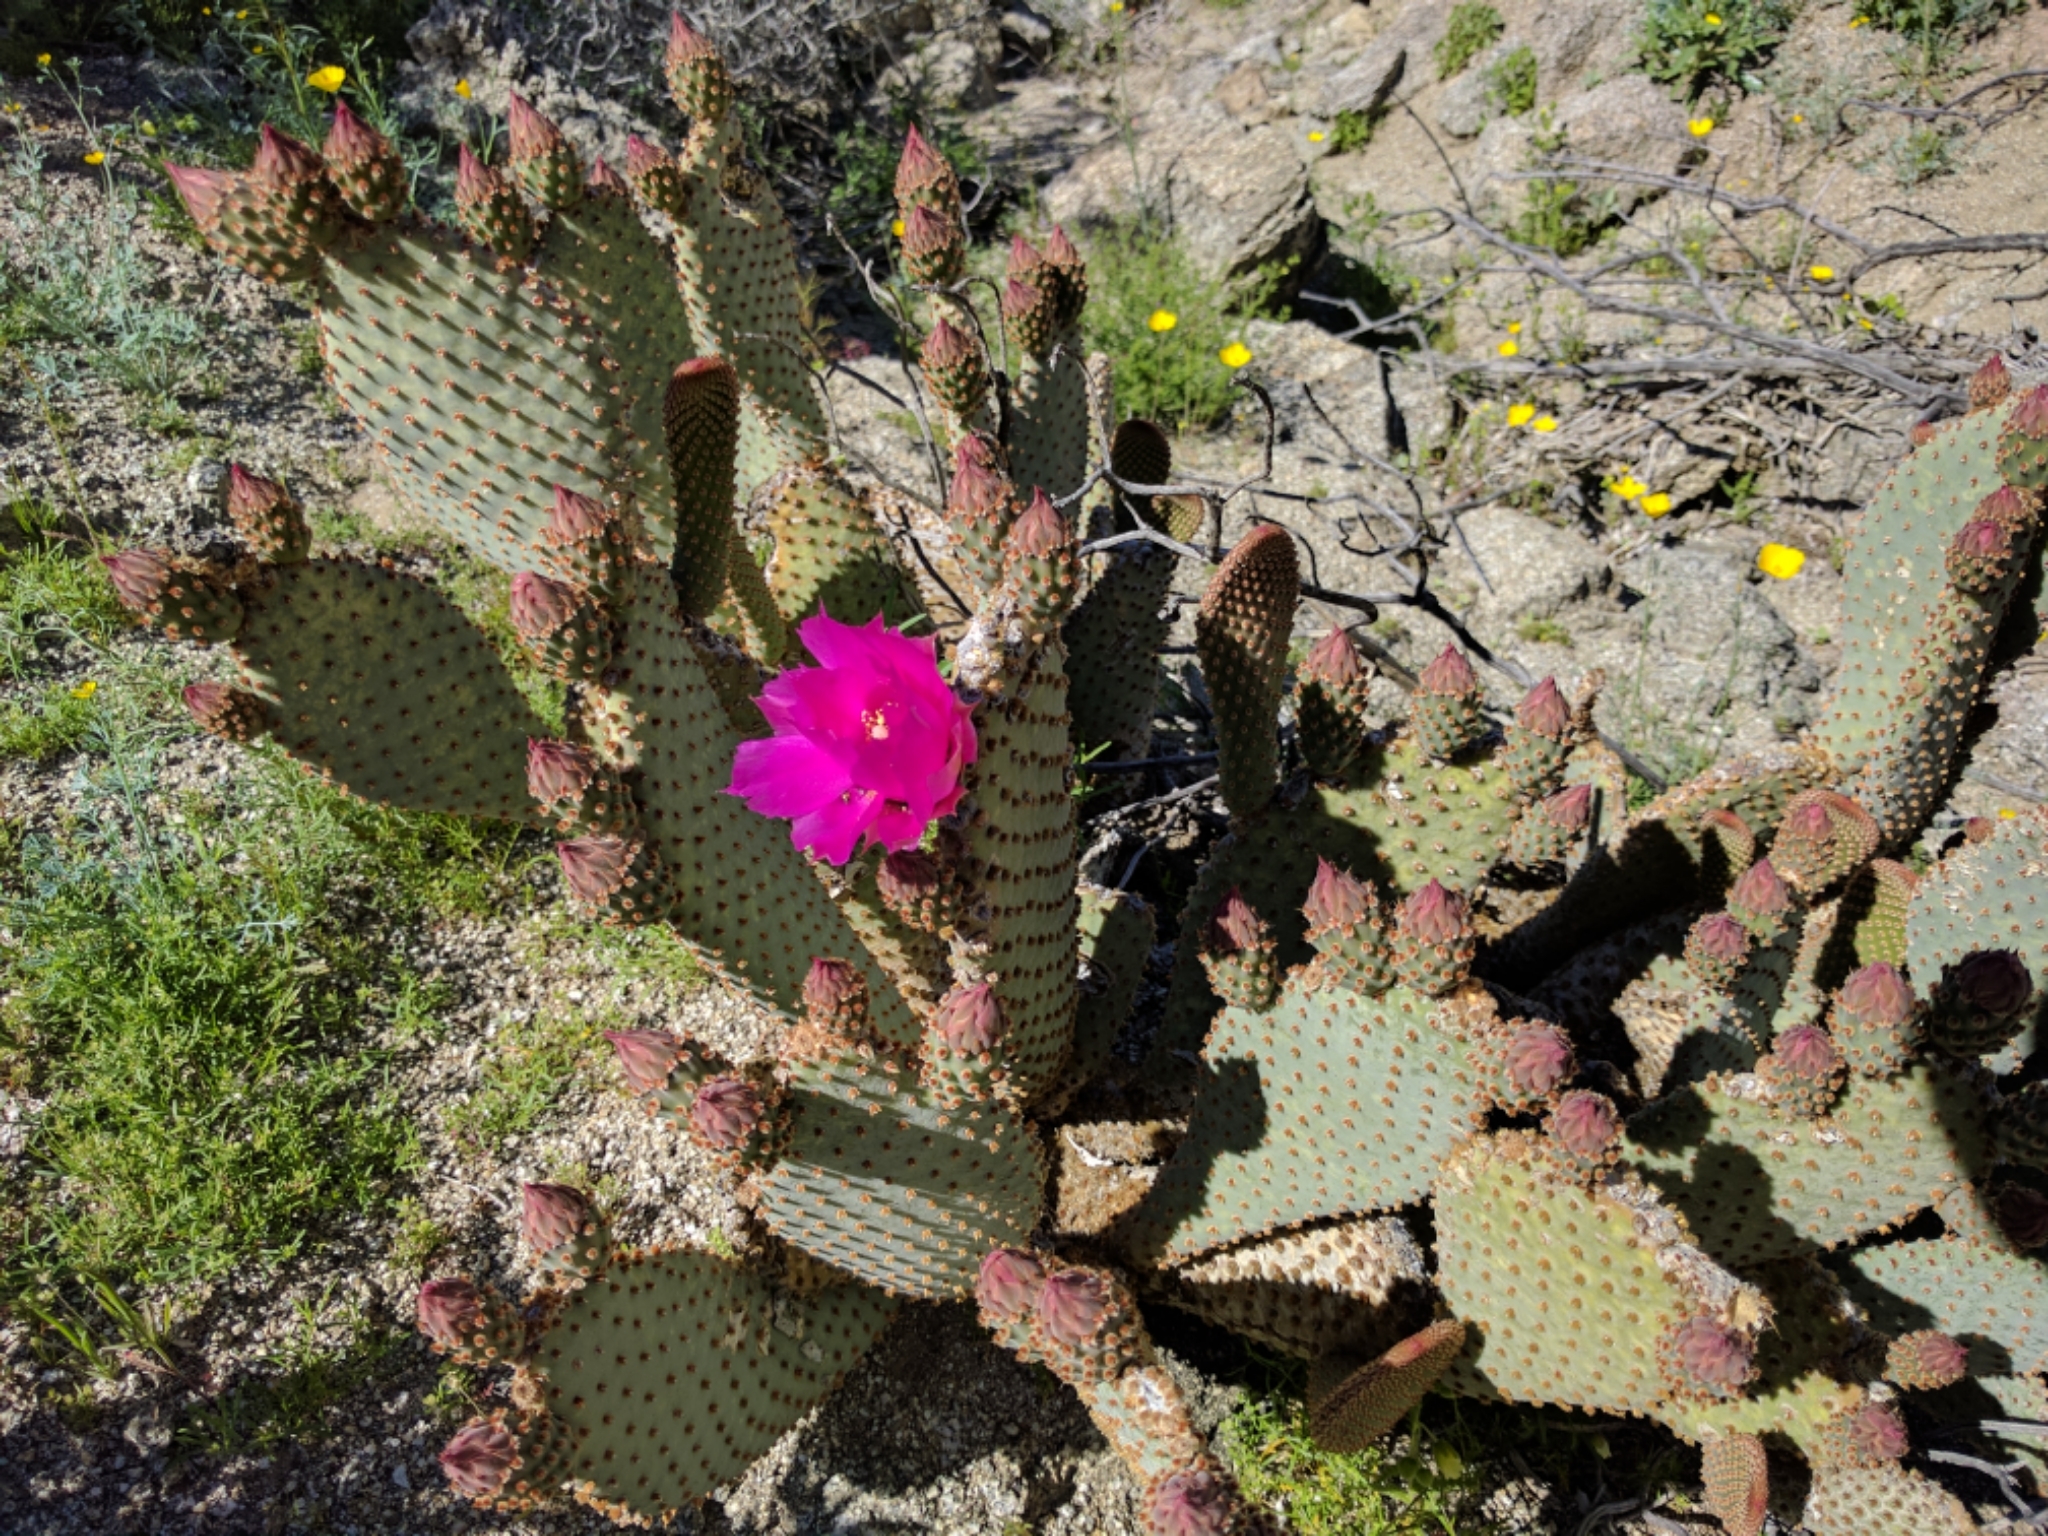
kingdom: Plantae
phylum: Tracheophyta
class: Magnoliopsida
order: Caryophyllales
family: Cactaceae
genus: Opuntia
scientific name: Opuntia basilaris
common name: Beavertail prickly-pear
